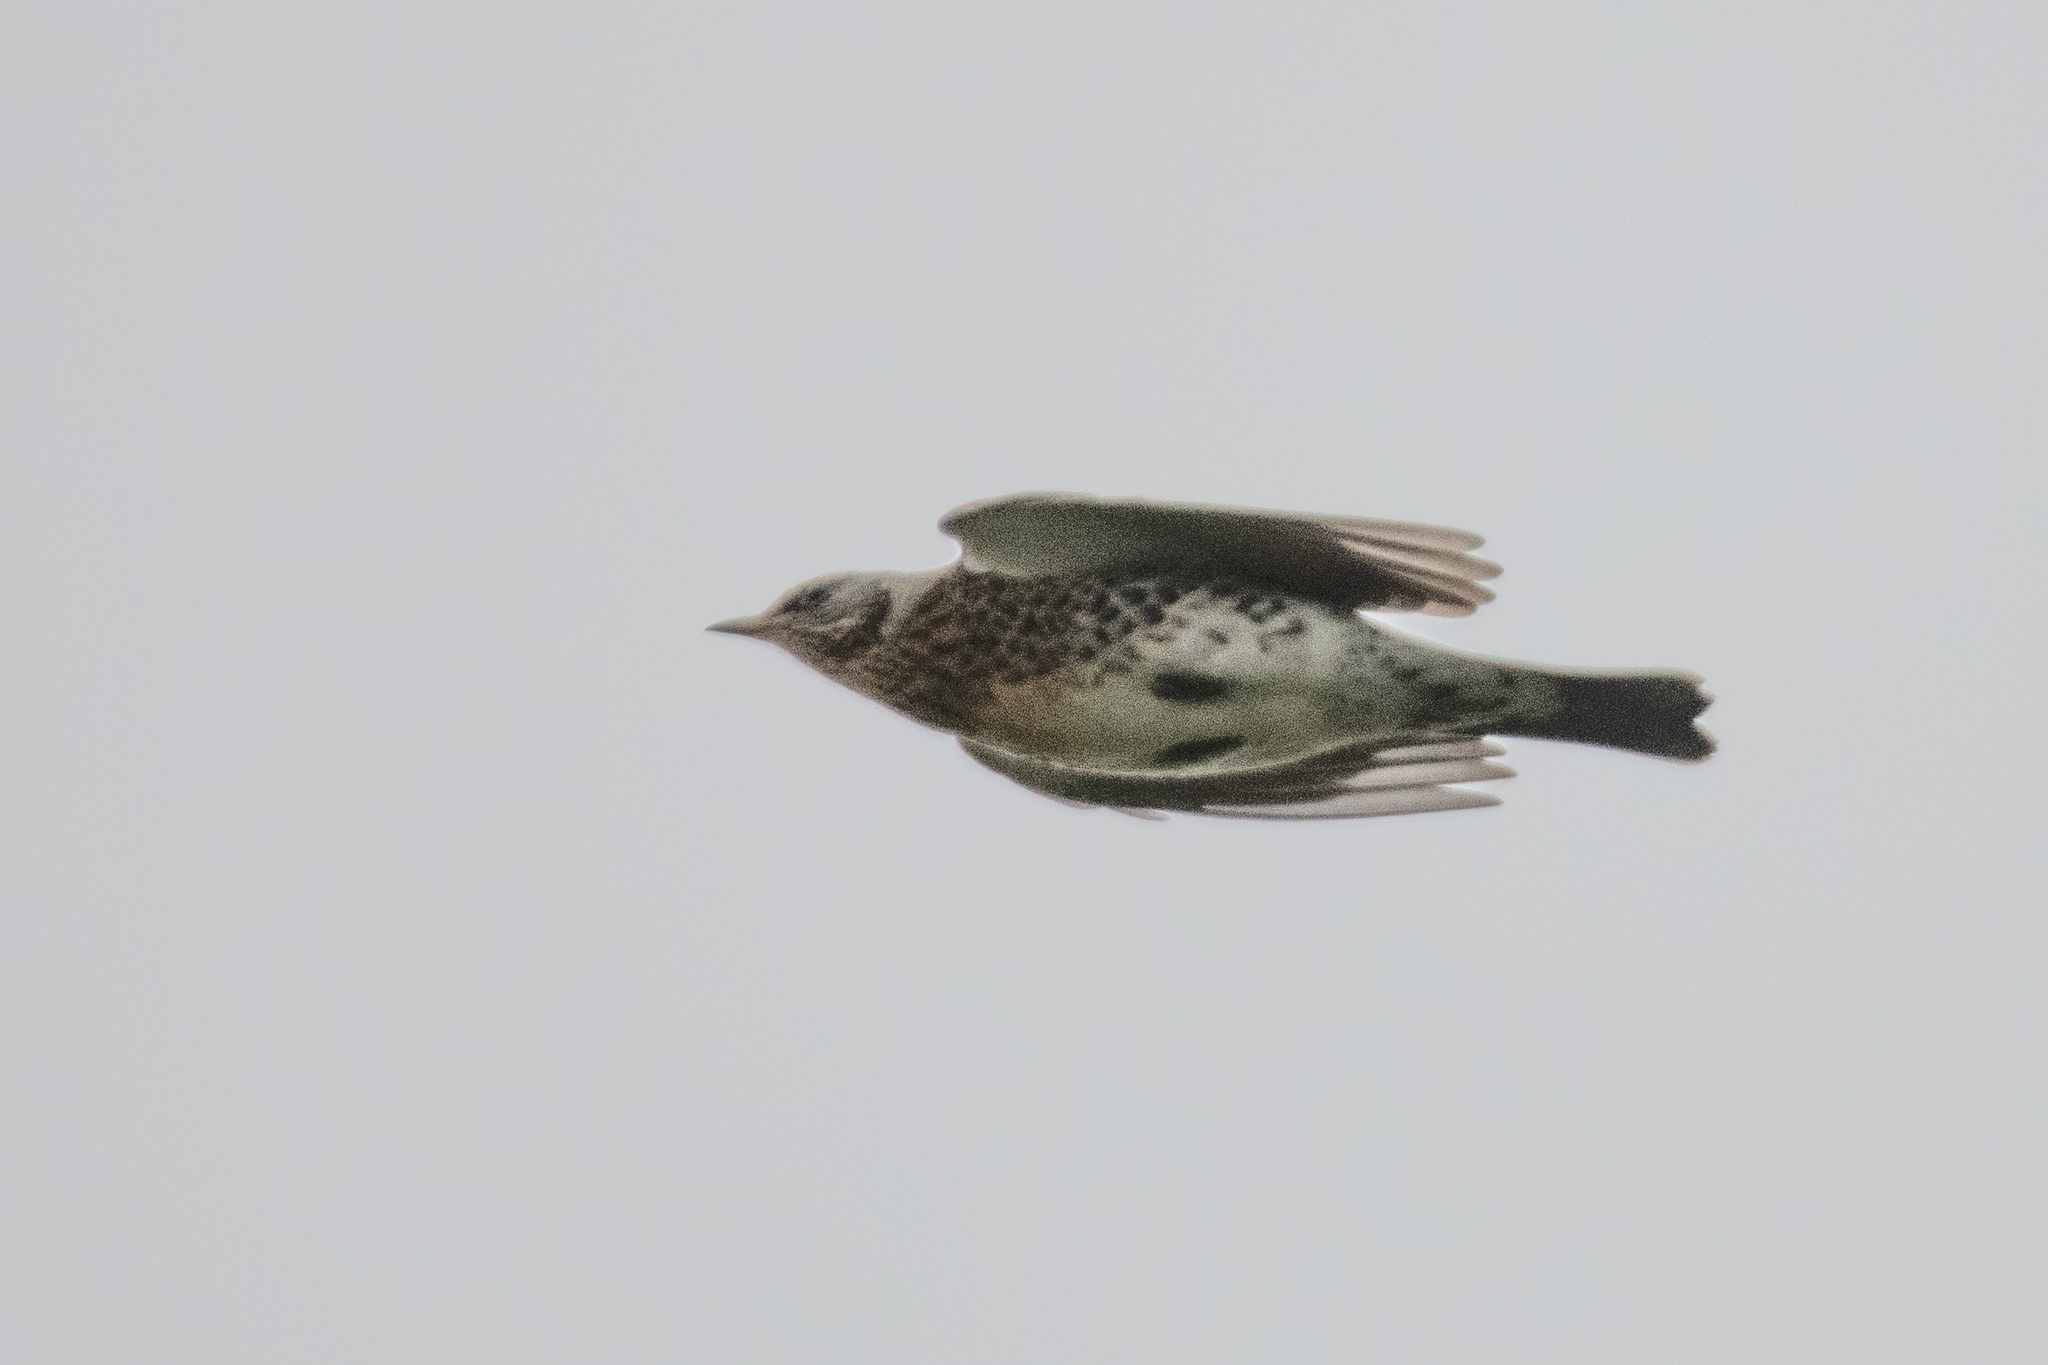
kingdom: Animalia
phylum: Chordata
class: Aves
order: Passeriformes
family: Turdidae
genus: Turdus
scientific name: Turdus pilaris
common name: Fieldfare
